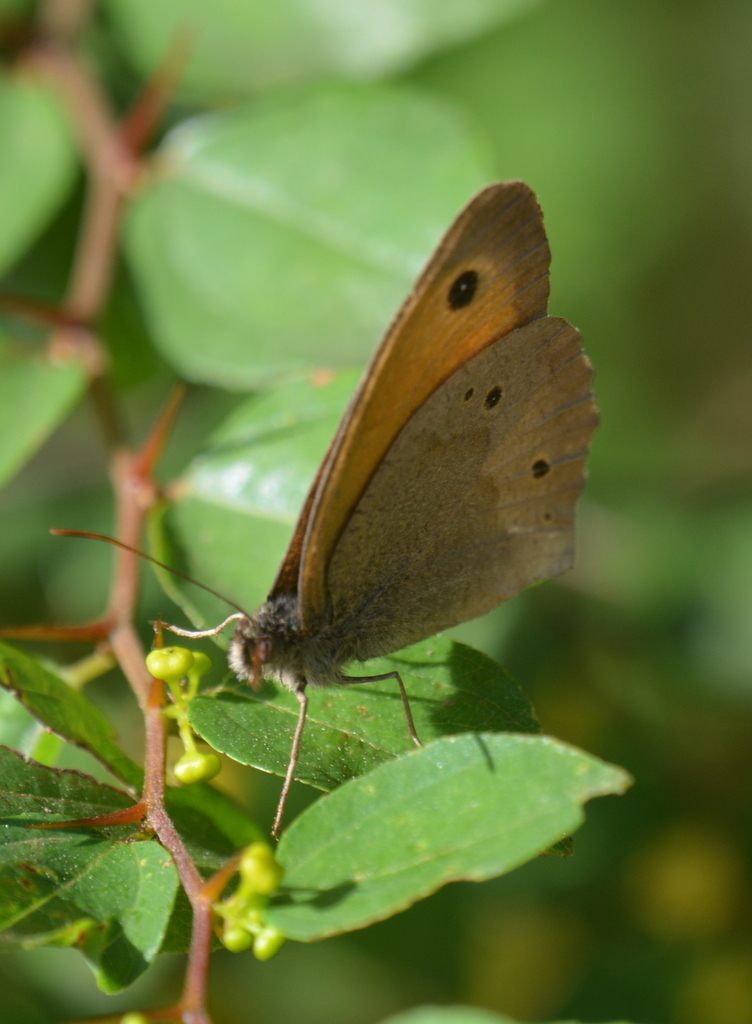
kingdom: Animalia
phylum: Arthropoda
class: Insecta
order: Lepidoptera
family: Nymphalidae
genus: Maniola
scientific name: Maniola jurtina
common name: Meadow brown
